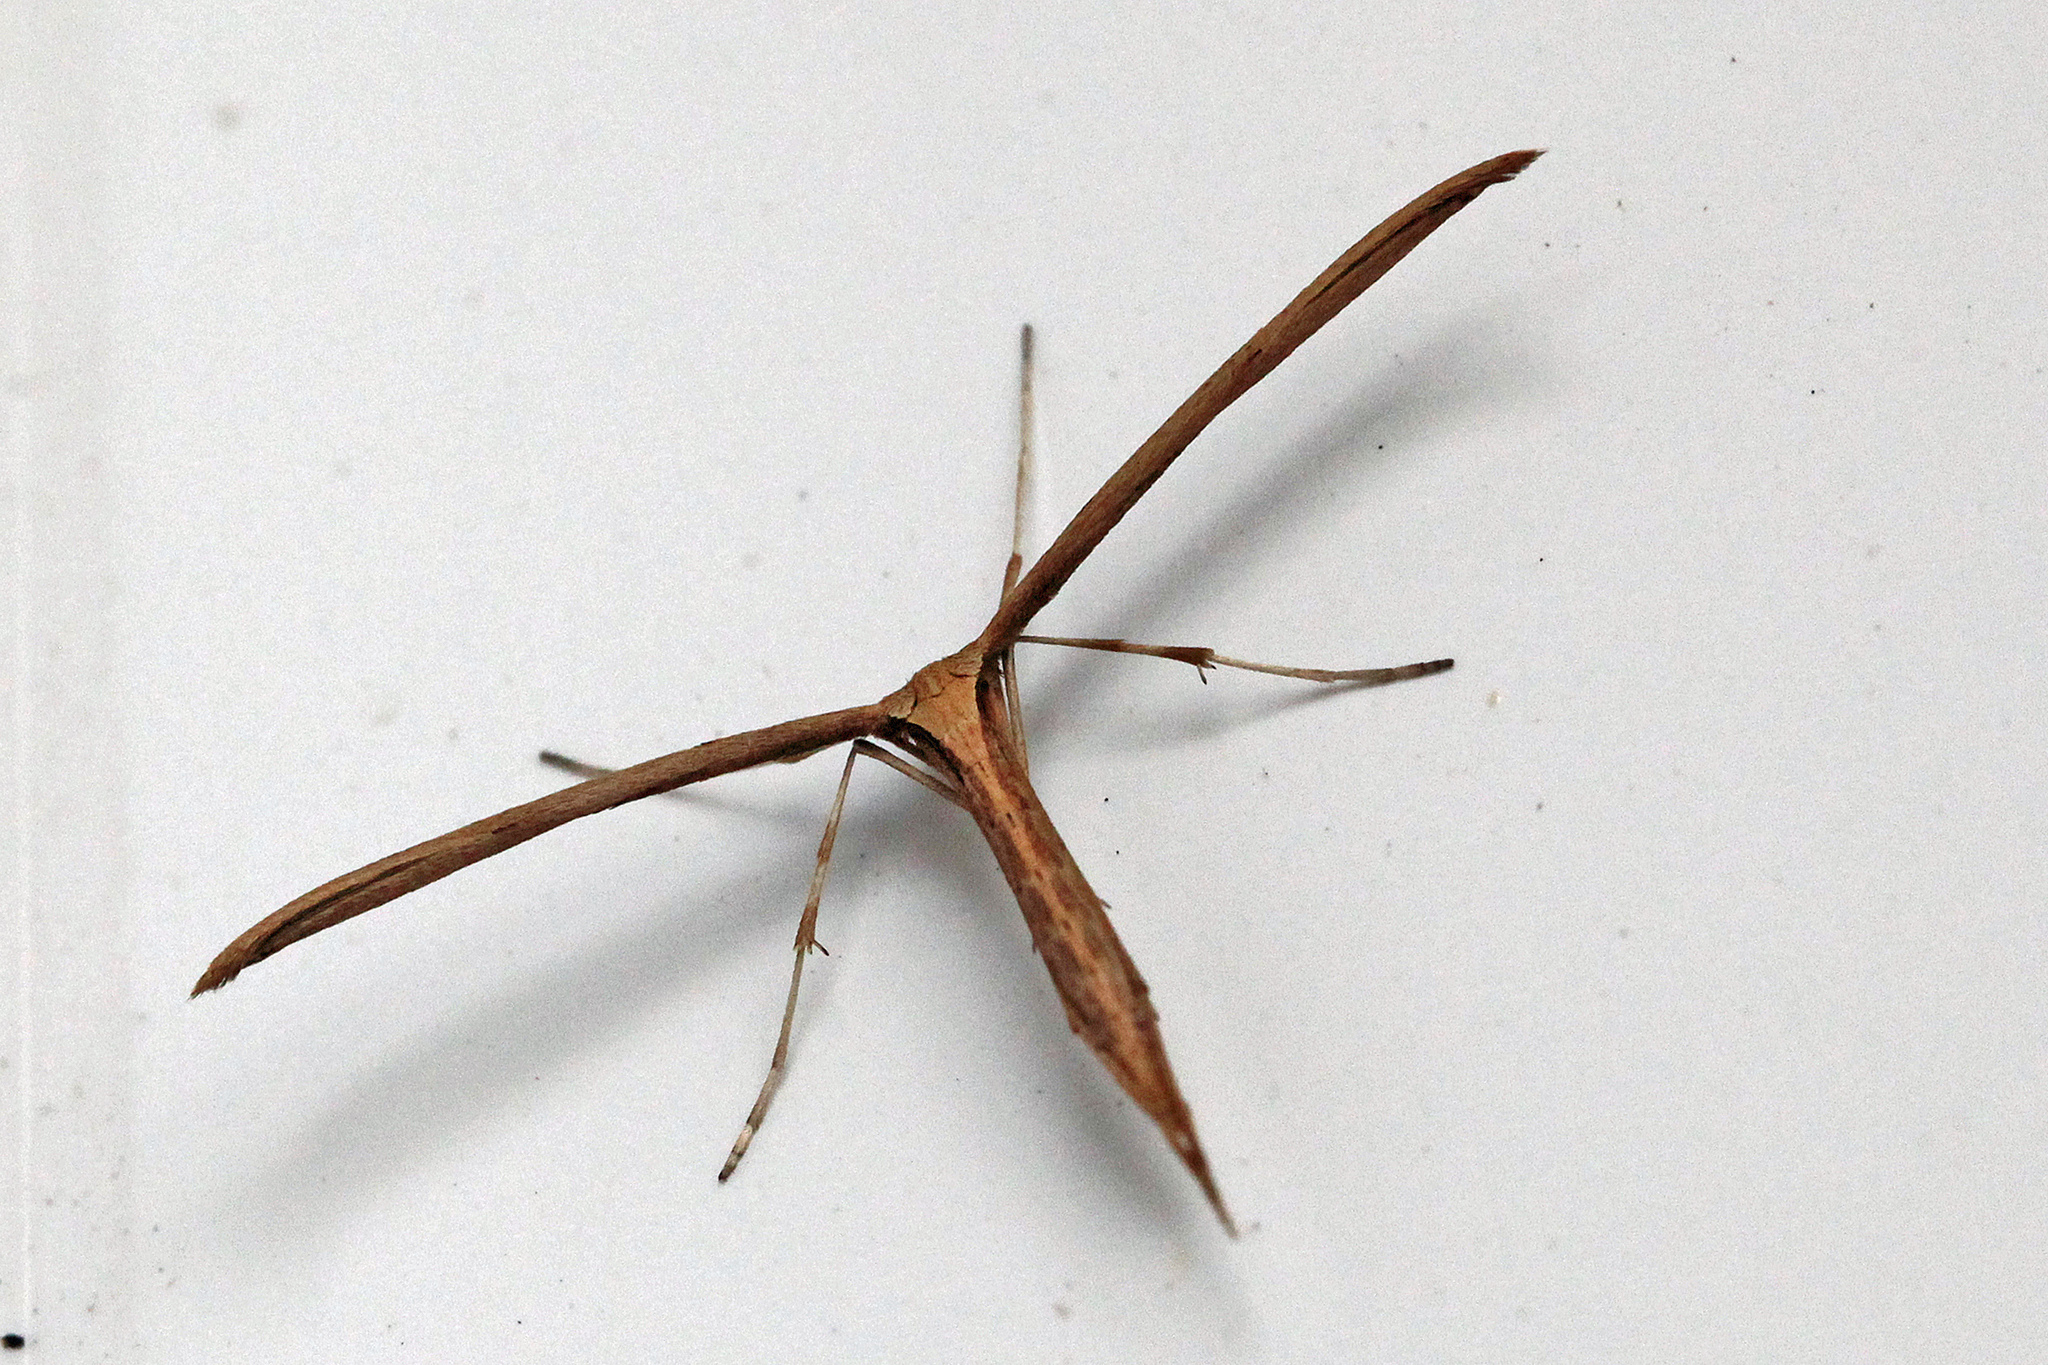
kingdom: Animalia
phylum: Arthropoda
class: Insecta
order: Lepidoptera
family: Pterophoridae
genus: Emmelina
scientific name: Emmelina monodactyla
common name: Common plume
